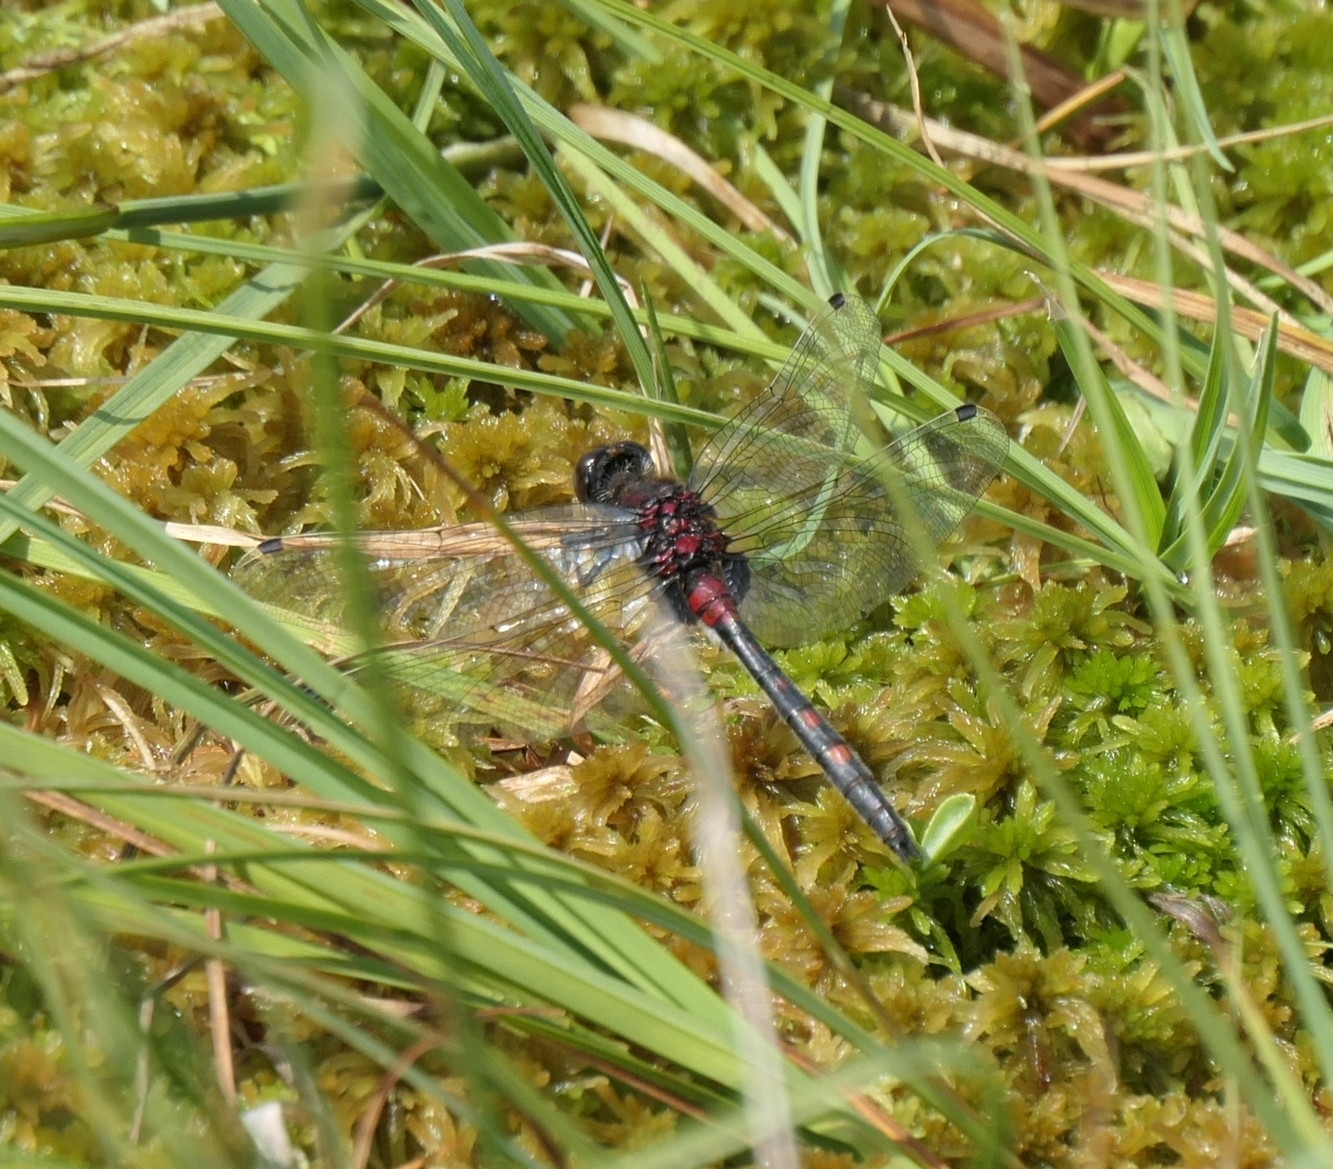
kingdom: Animalia
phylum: Arthropoda
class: Insecta
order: Odonata
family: Libellulidae
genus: Leucorrhinia
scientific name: Leucorrhinia dubia
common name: White-faced darter
